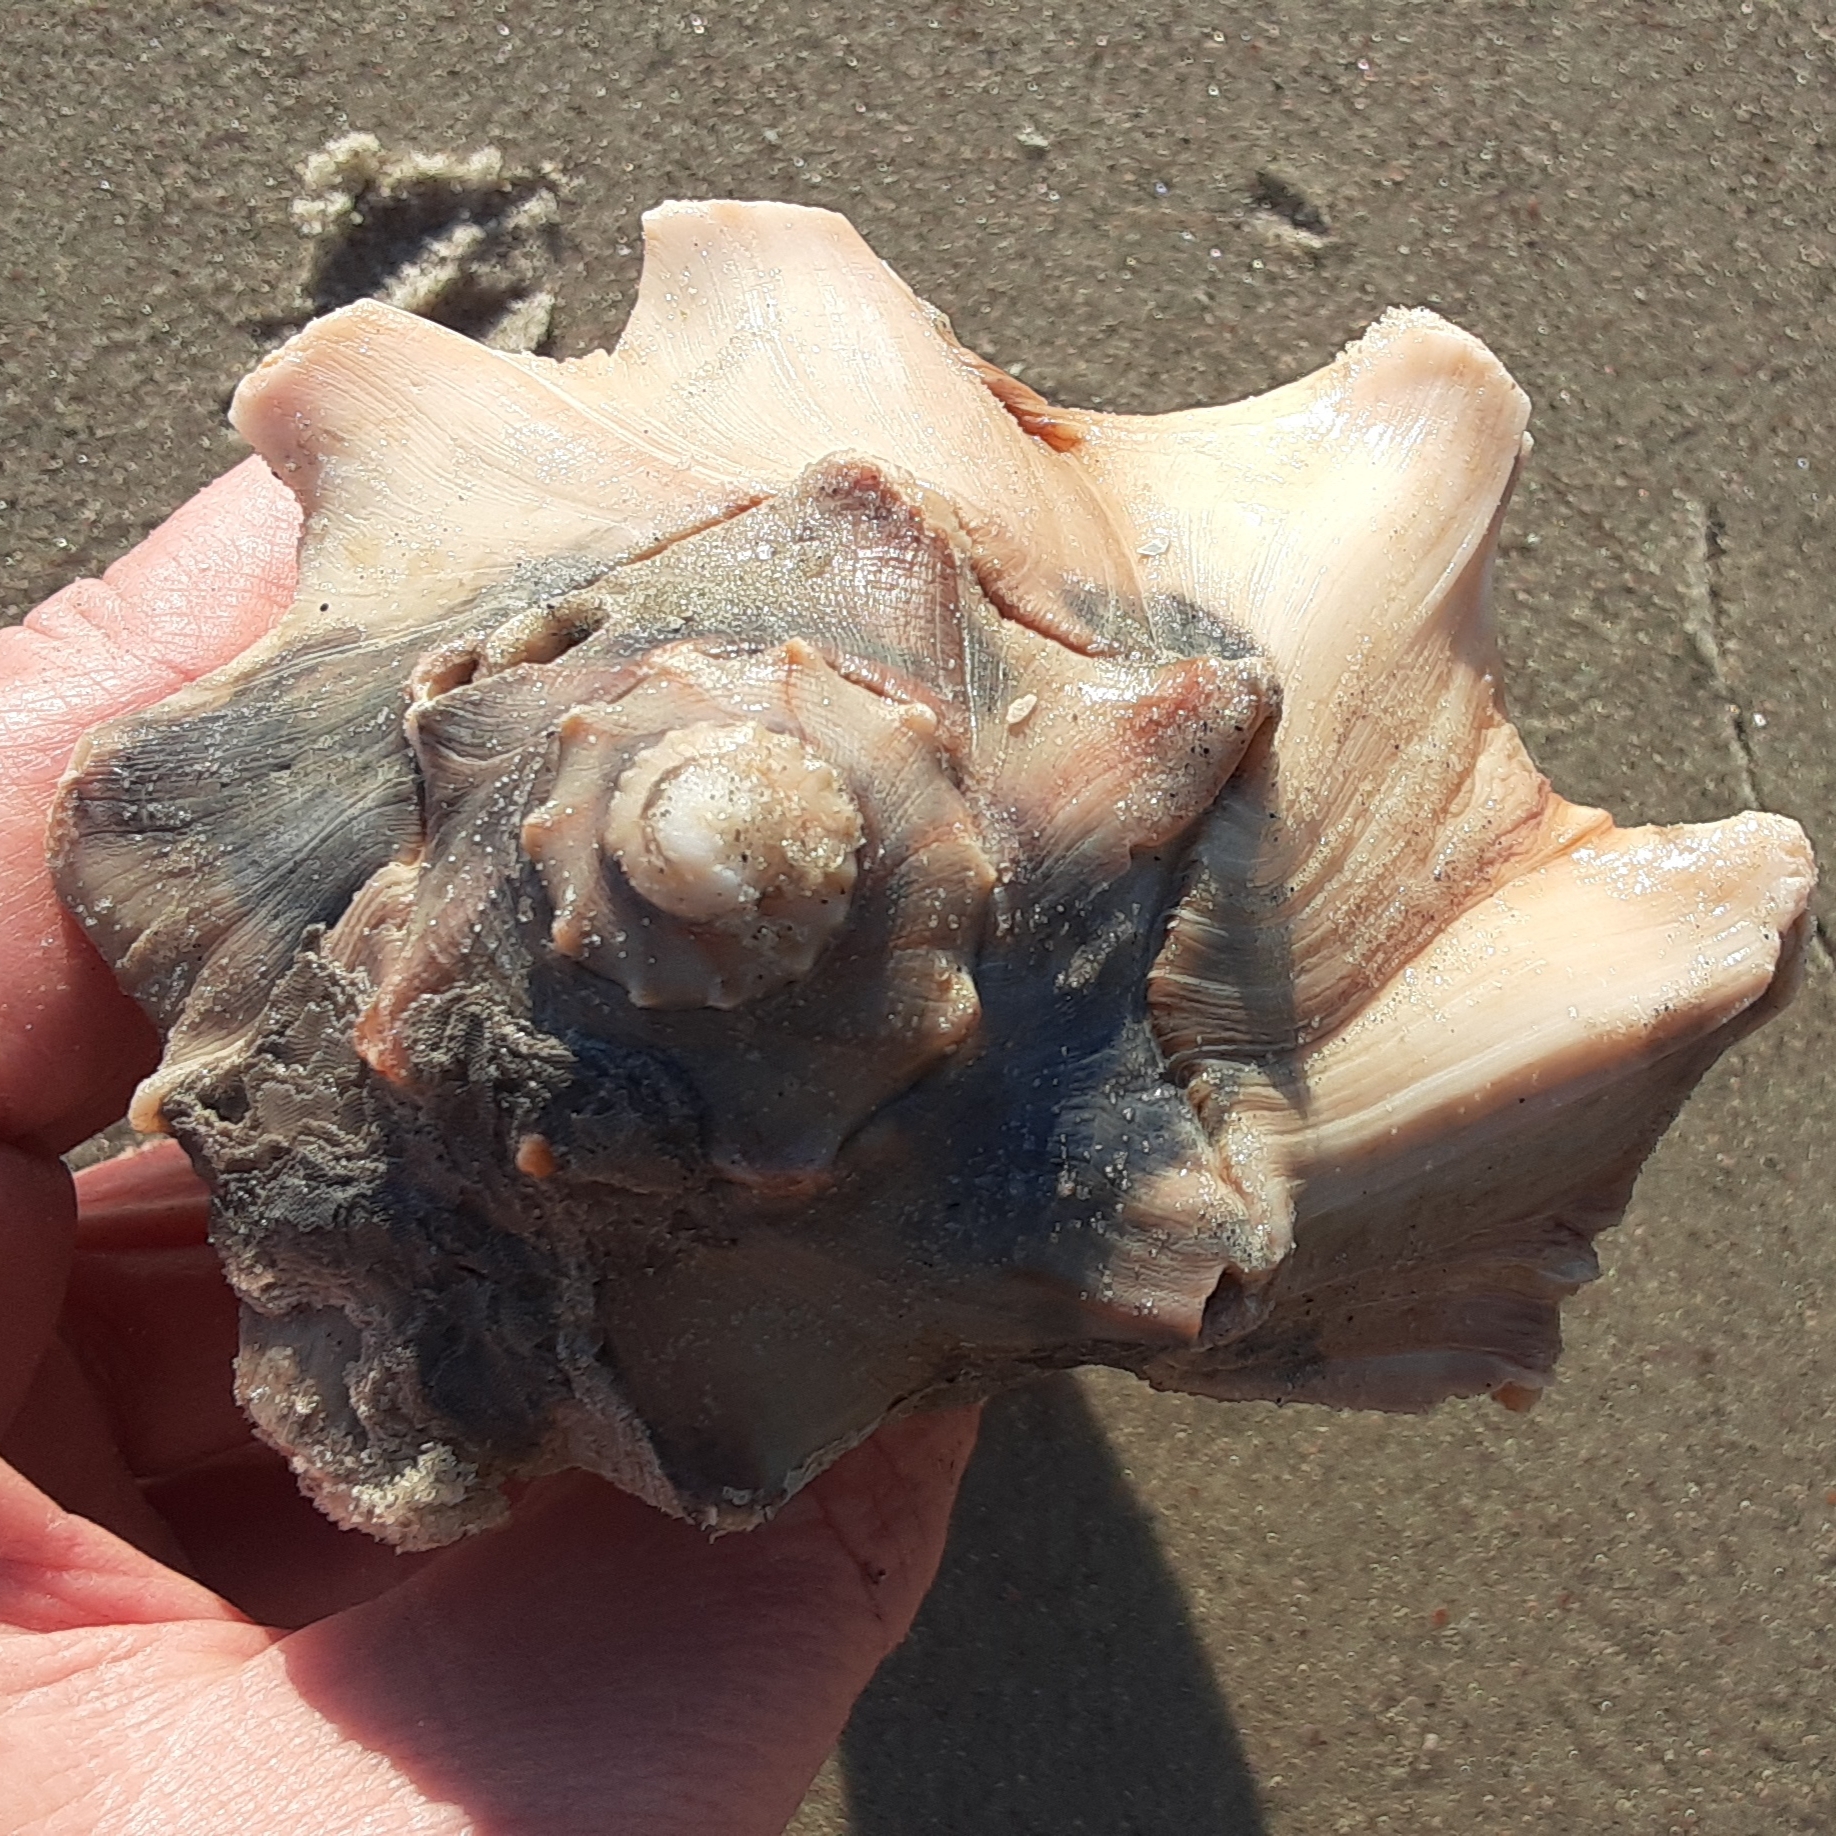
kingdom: Animalia
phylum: Mollusca
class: Gastropoda
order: Neogastropoda
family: Busyconidae
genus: Busycon
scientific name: Busycon carica
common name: Knobbed whelk
